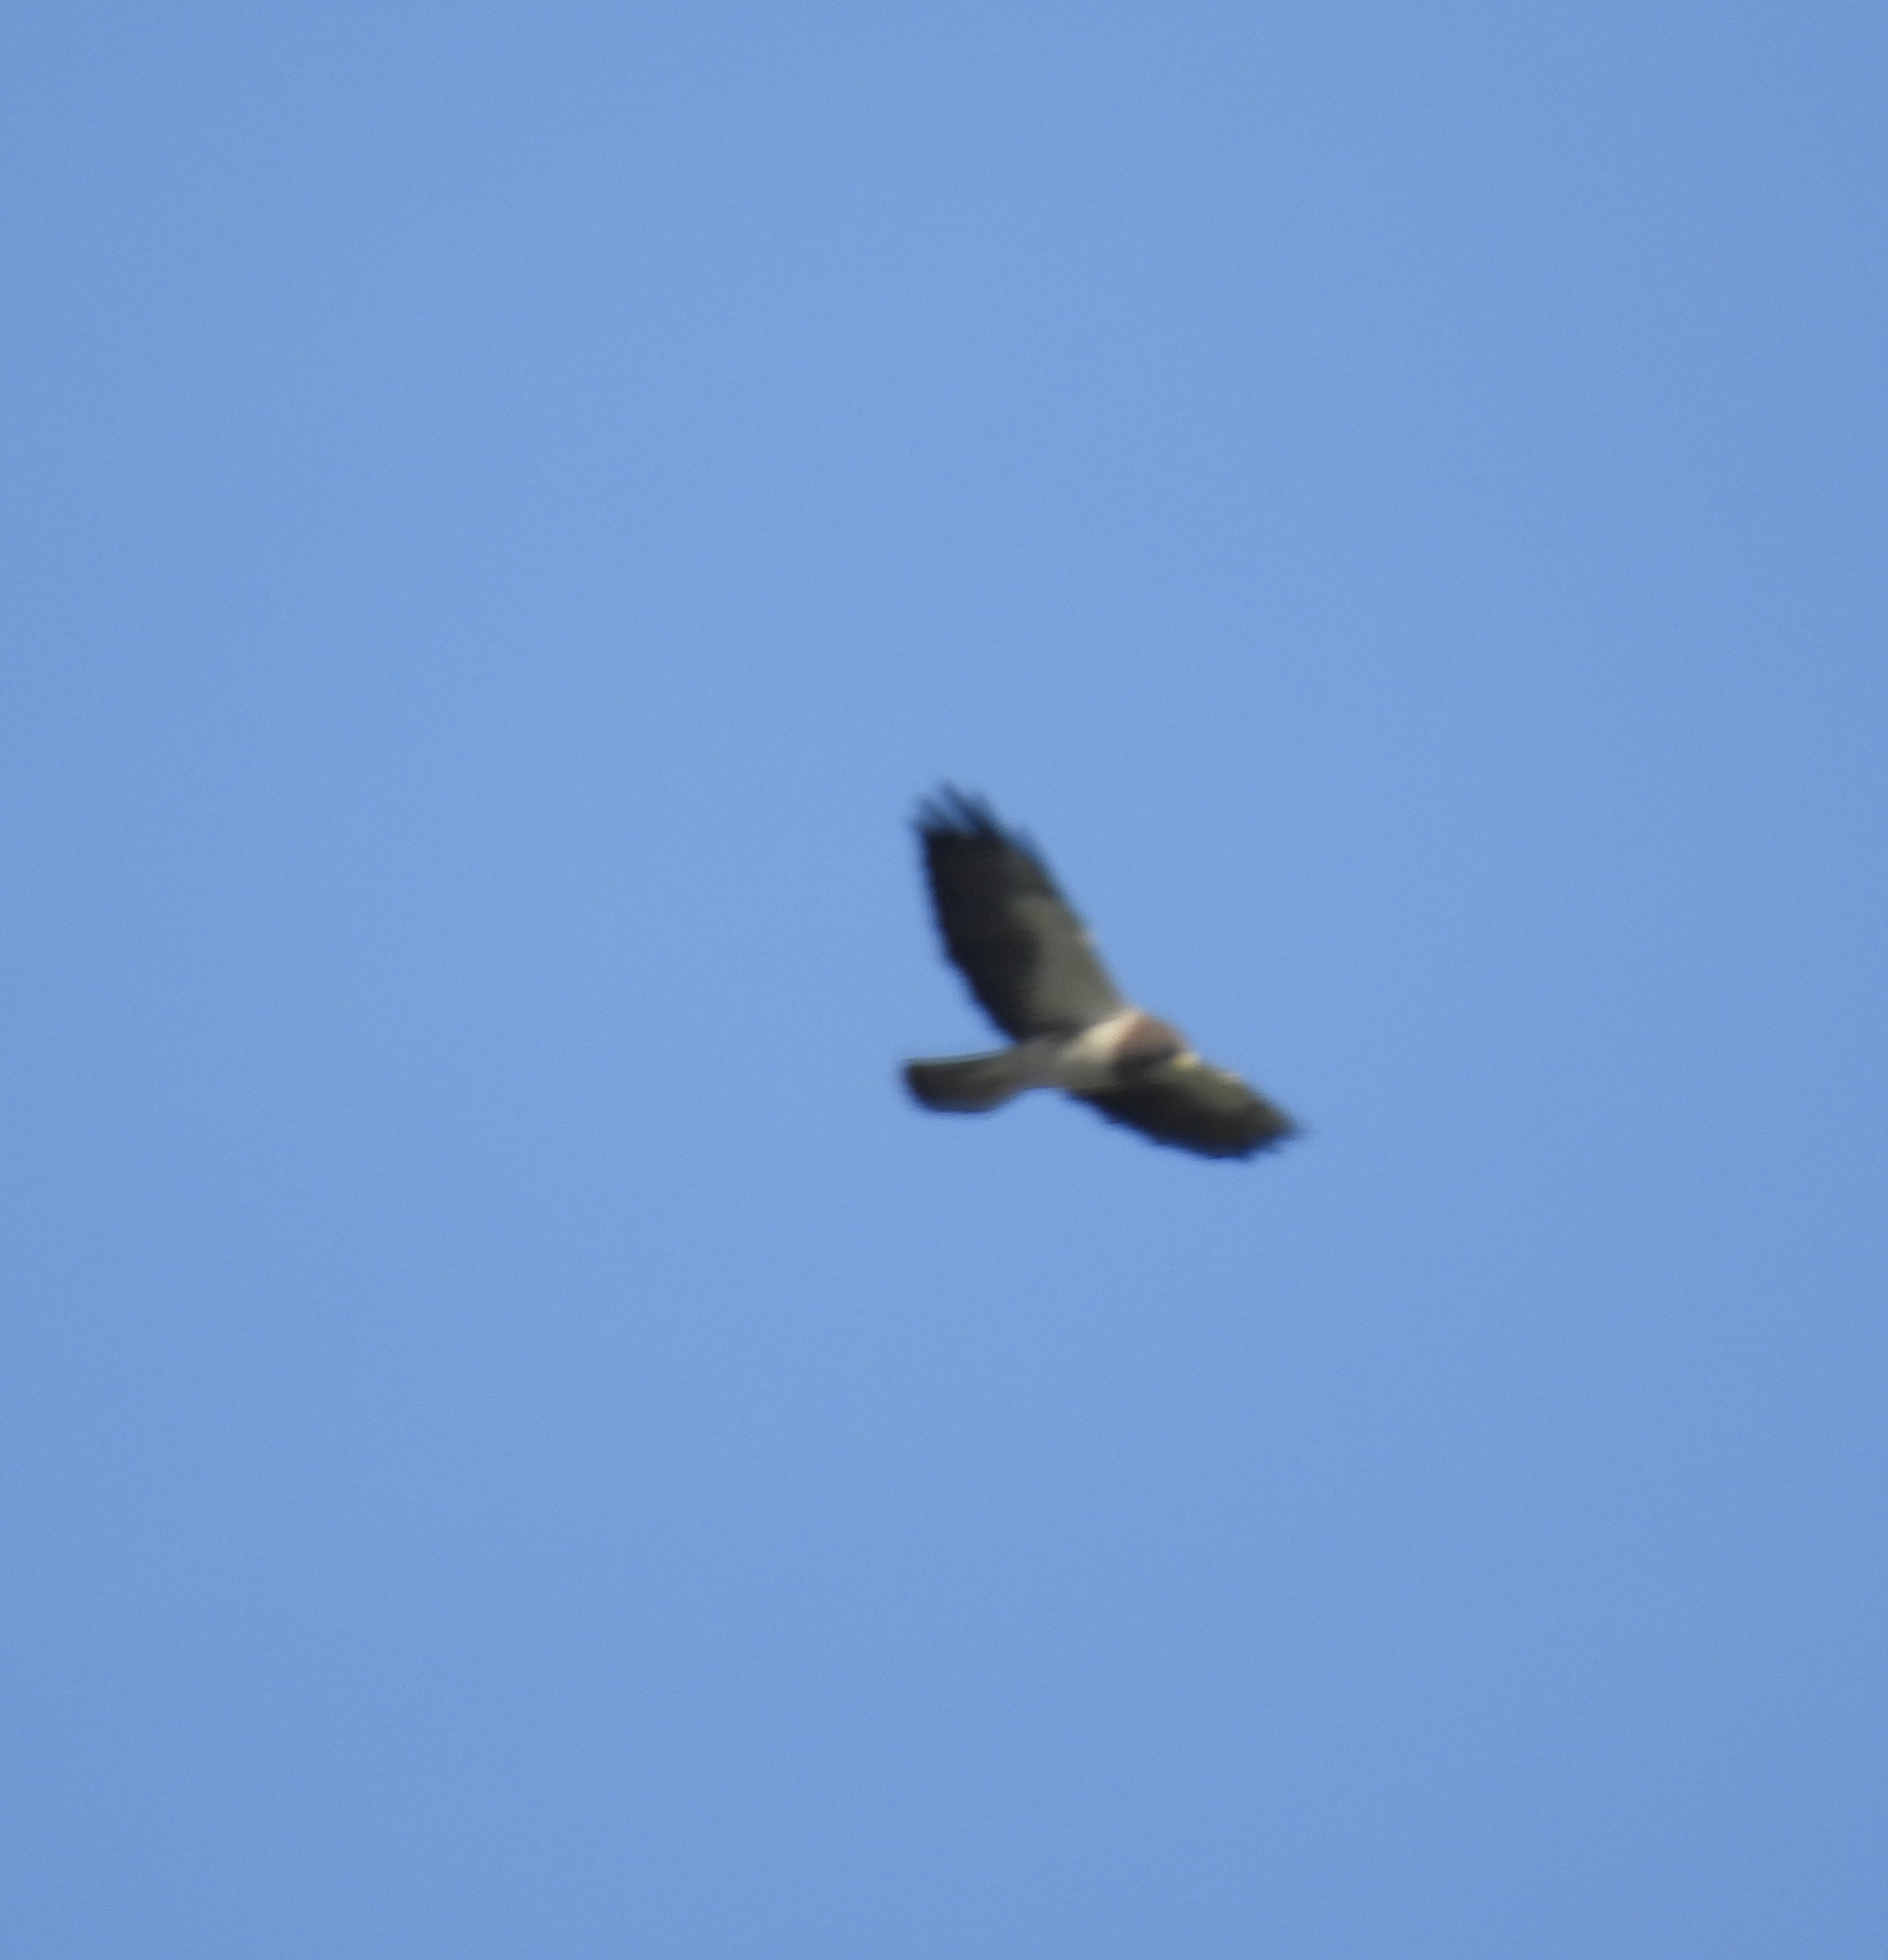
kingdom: Animalia
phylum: Chordata
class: Aves
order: Accipitriformes
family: Accipitridae
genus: Buteo
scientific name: Buteo swainsoni
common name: Swainson's hawk
